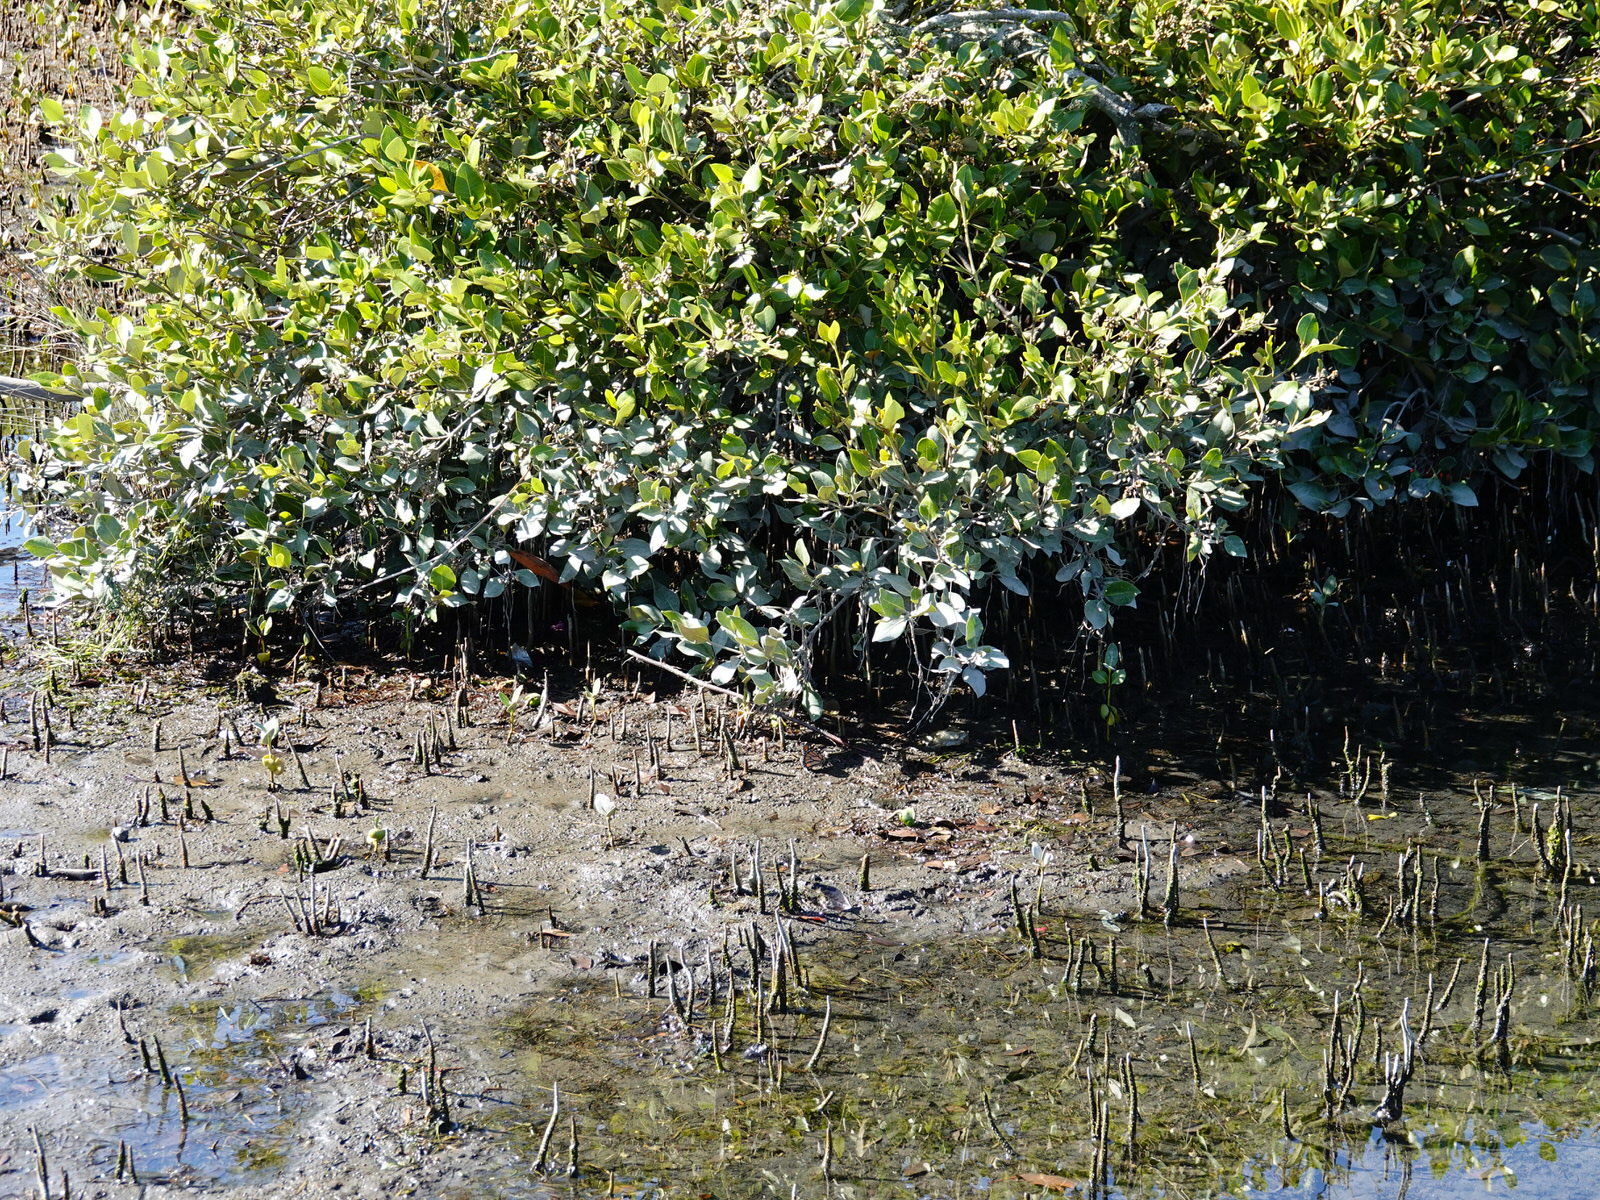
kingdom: Animalia
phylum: Arthropoda
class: Insecta
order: Lepidoptera
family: Nymphalidae
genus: Danaus
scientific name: Danaus plexippus
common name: Monarch
